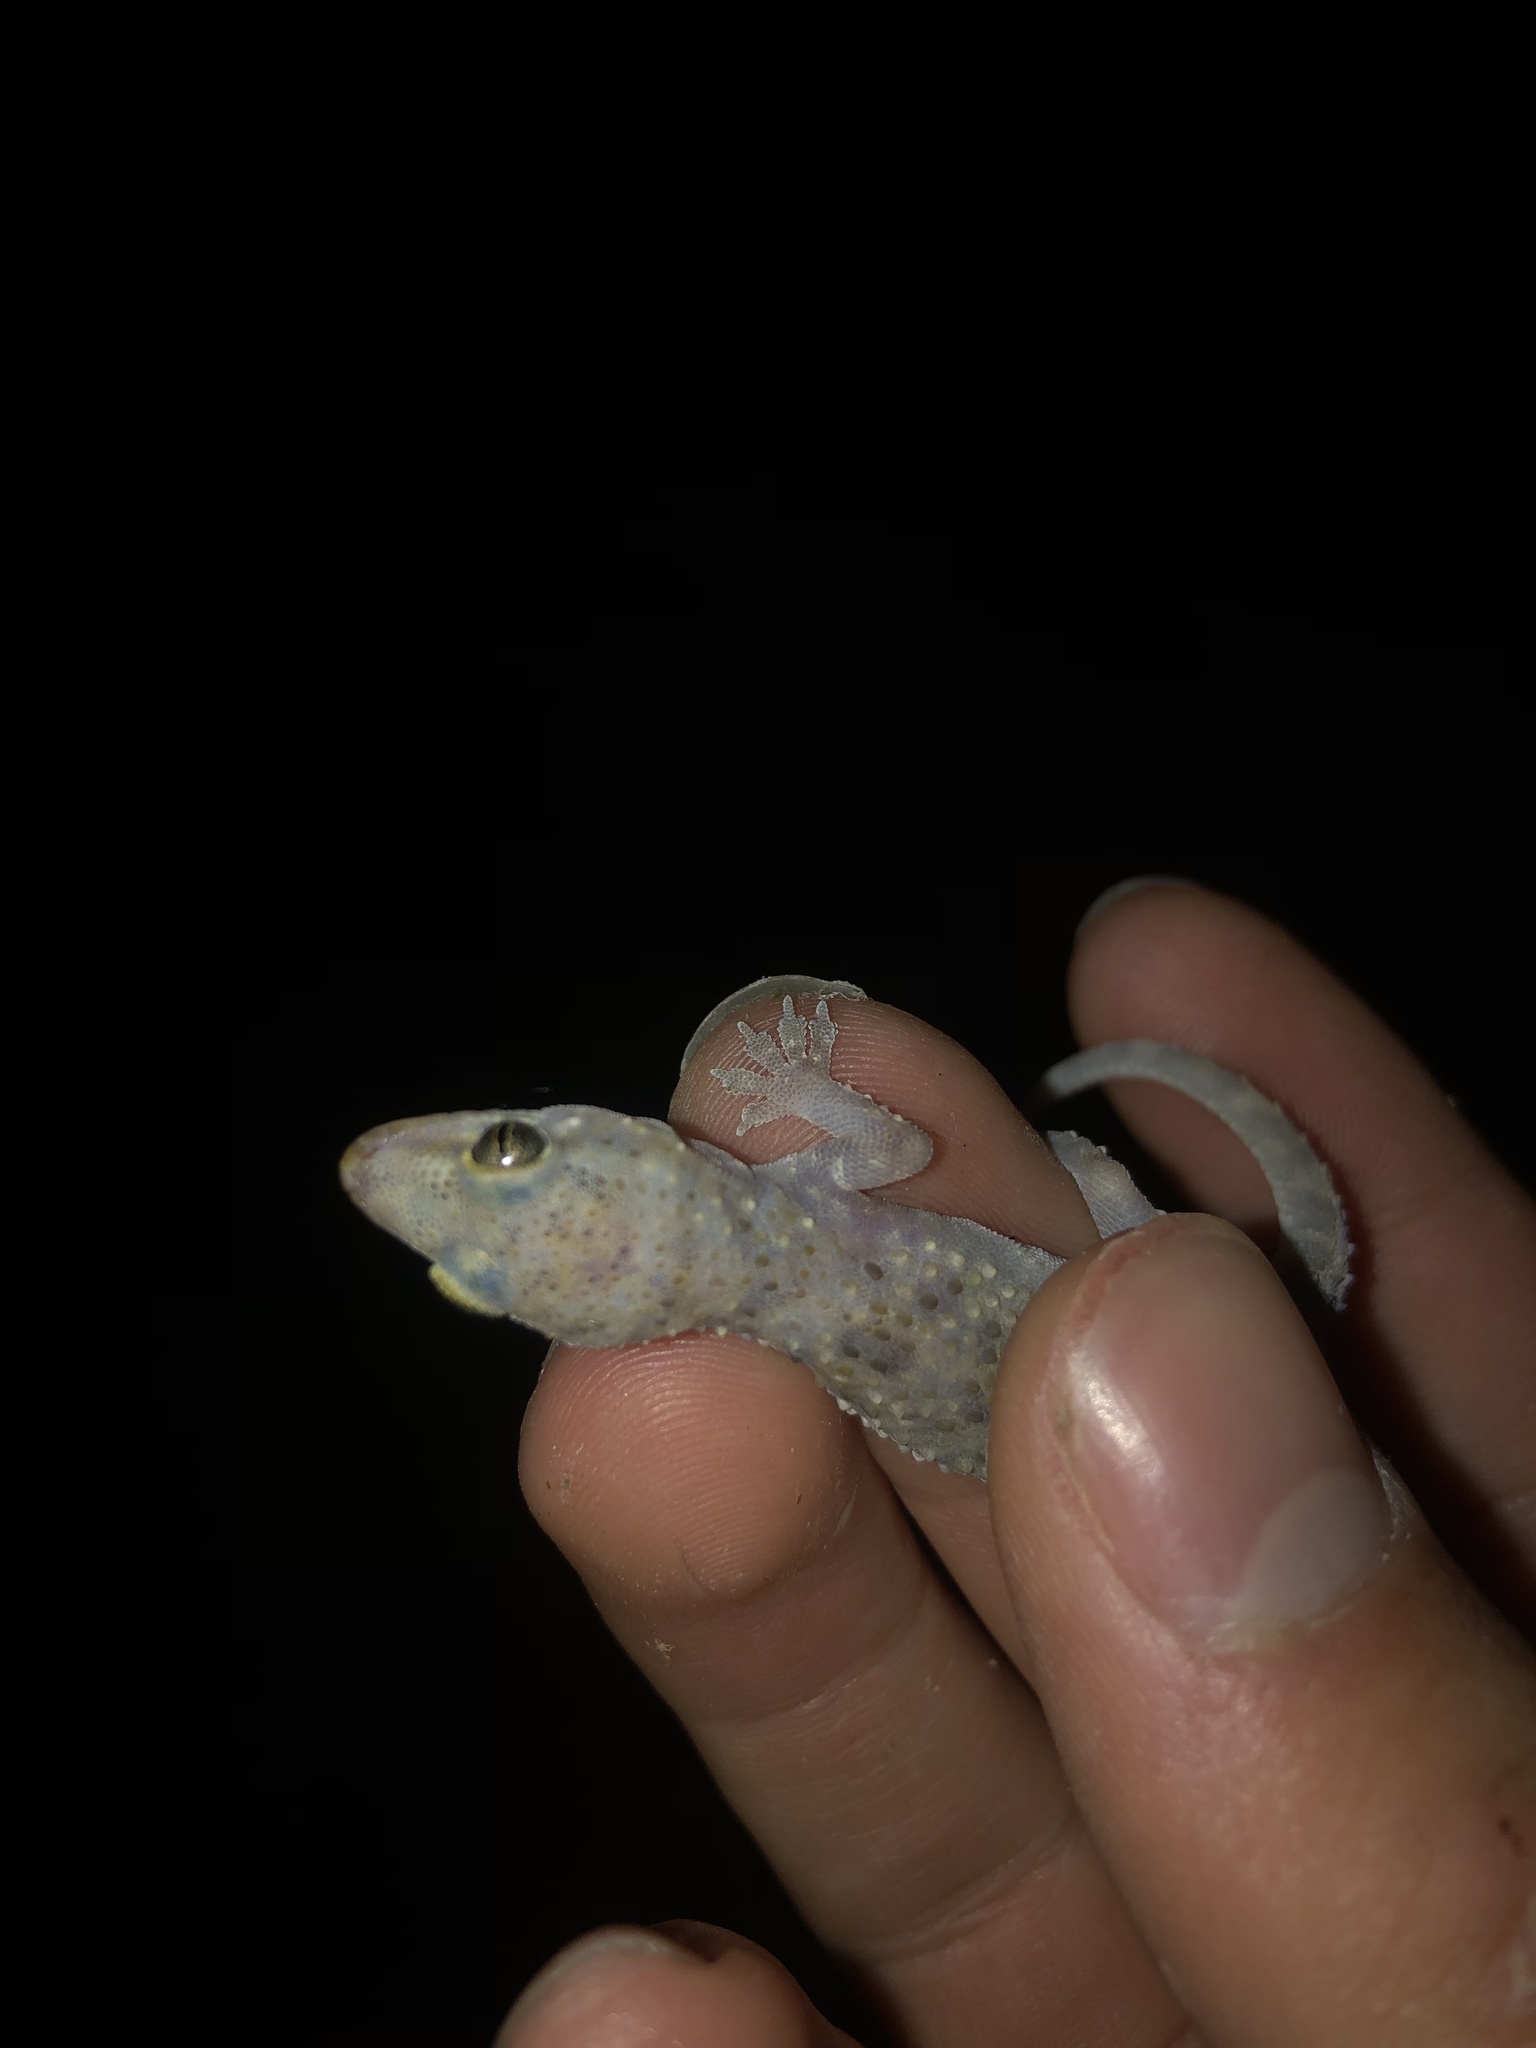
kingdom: Animalia
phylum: Chordata
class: Squamata
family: Gekkonidae
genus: Hemidactylus
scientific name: Hemidactylus turcicus
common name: Turkish gecko
